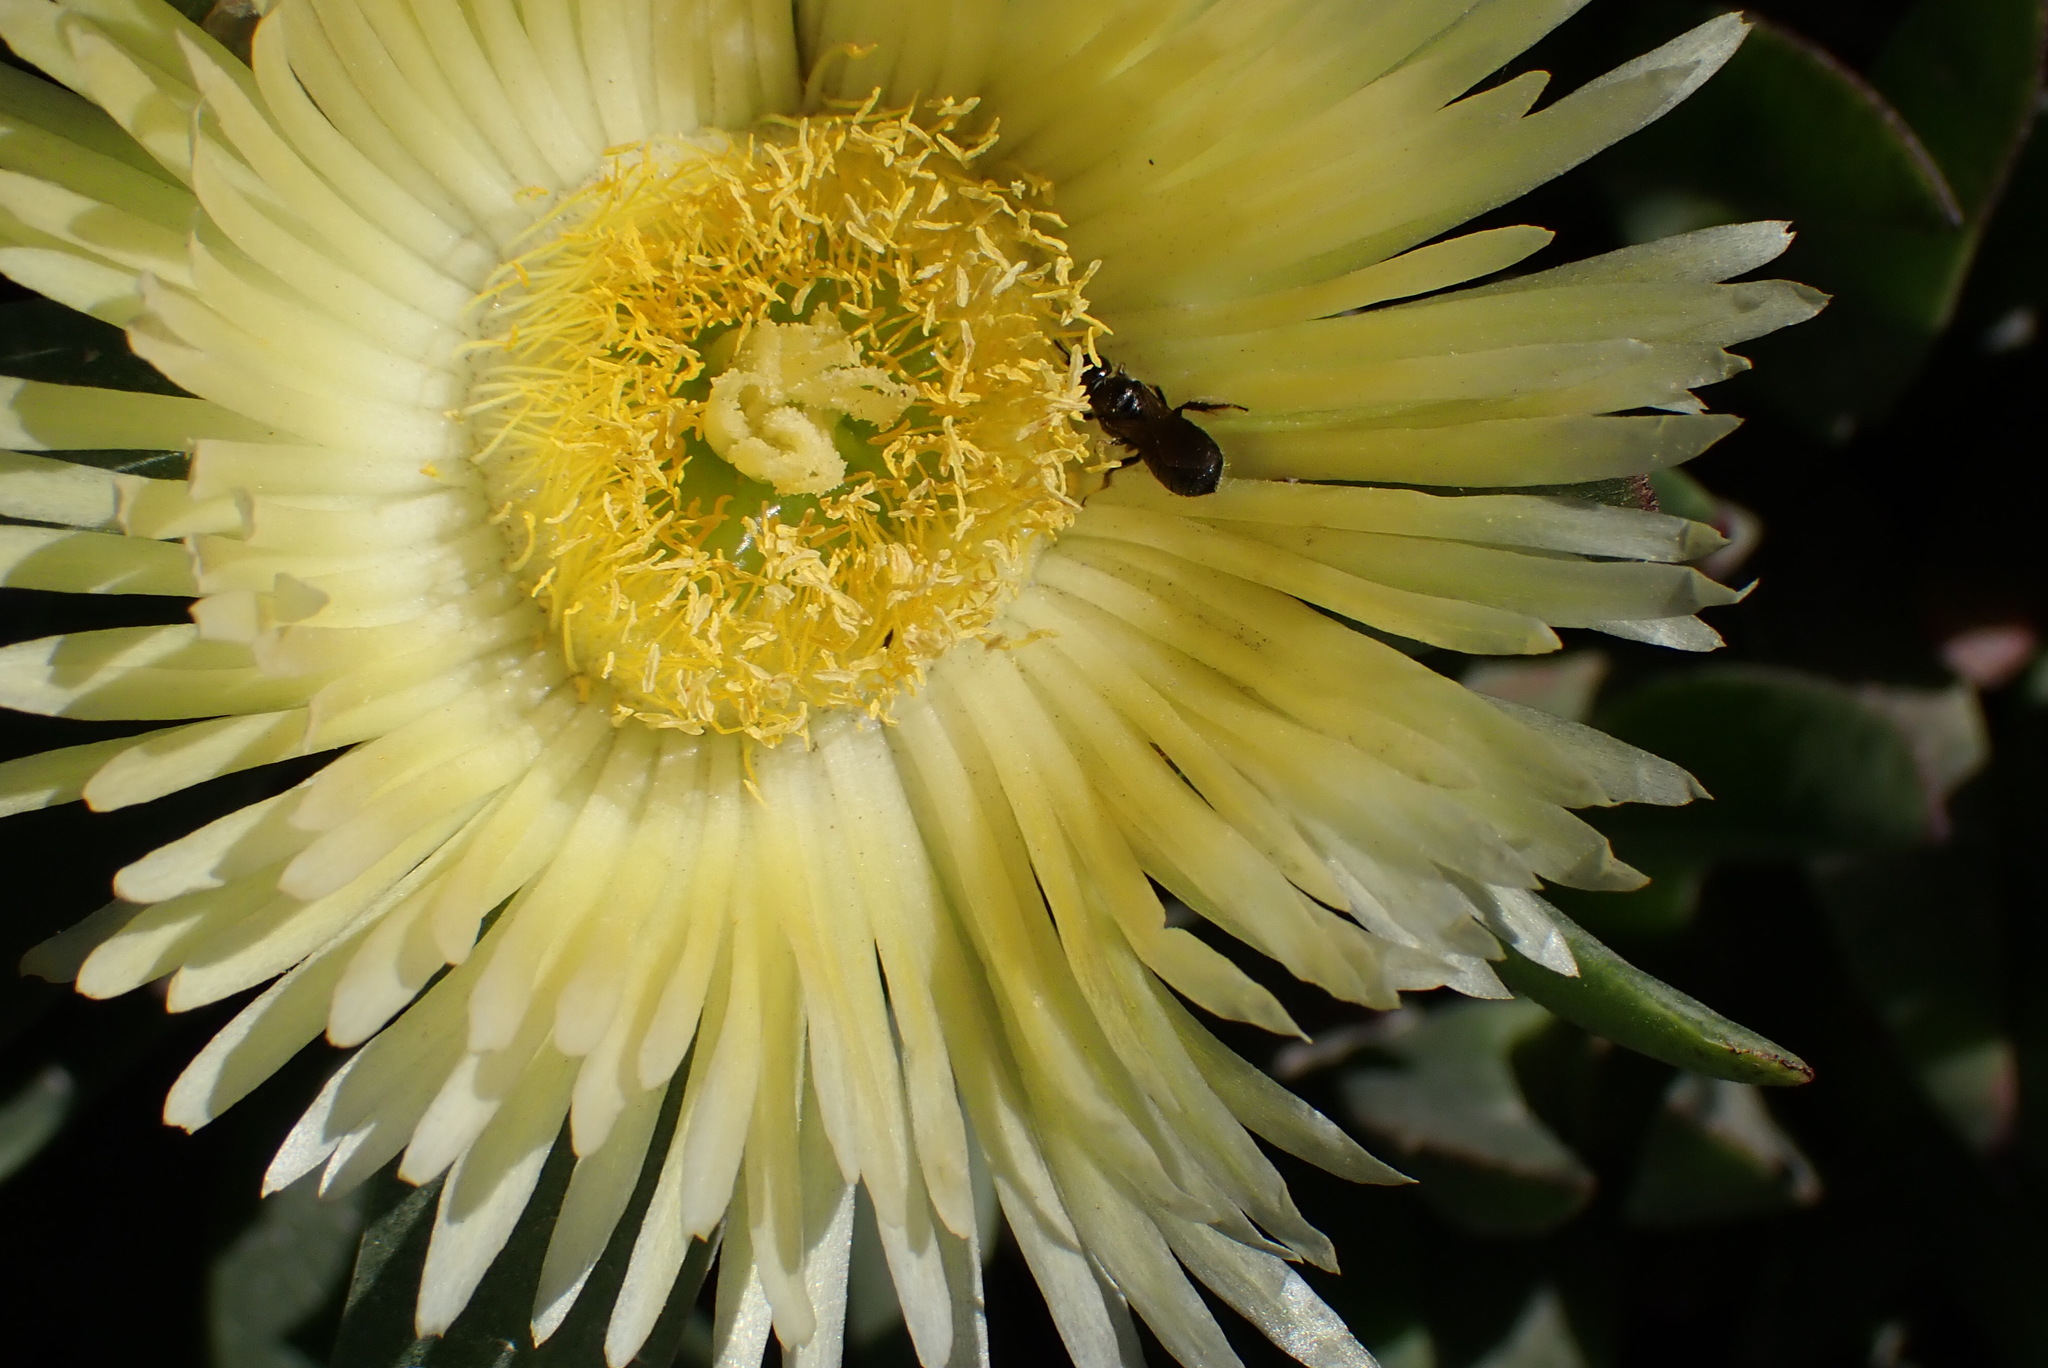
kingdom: Plantae
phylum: Tracheophyta
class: Magnoliopsida
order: Caryophyllales
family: Aizoaceae
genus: Carpobrotus
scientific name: Carpobrotus edulis
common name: Hottentot-fig
